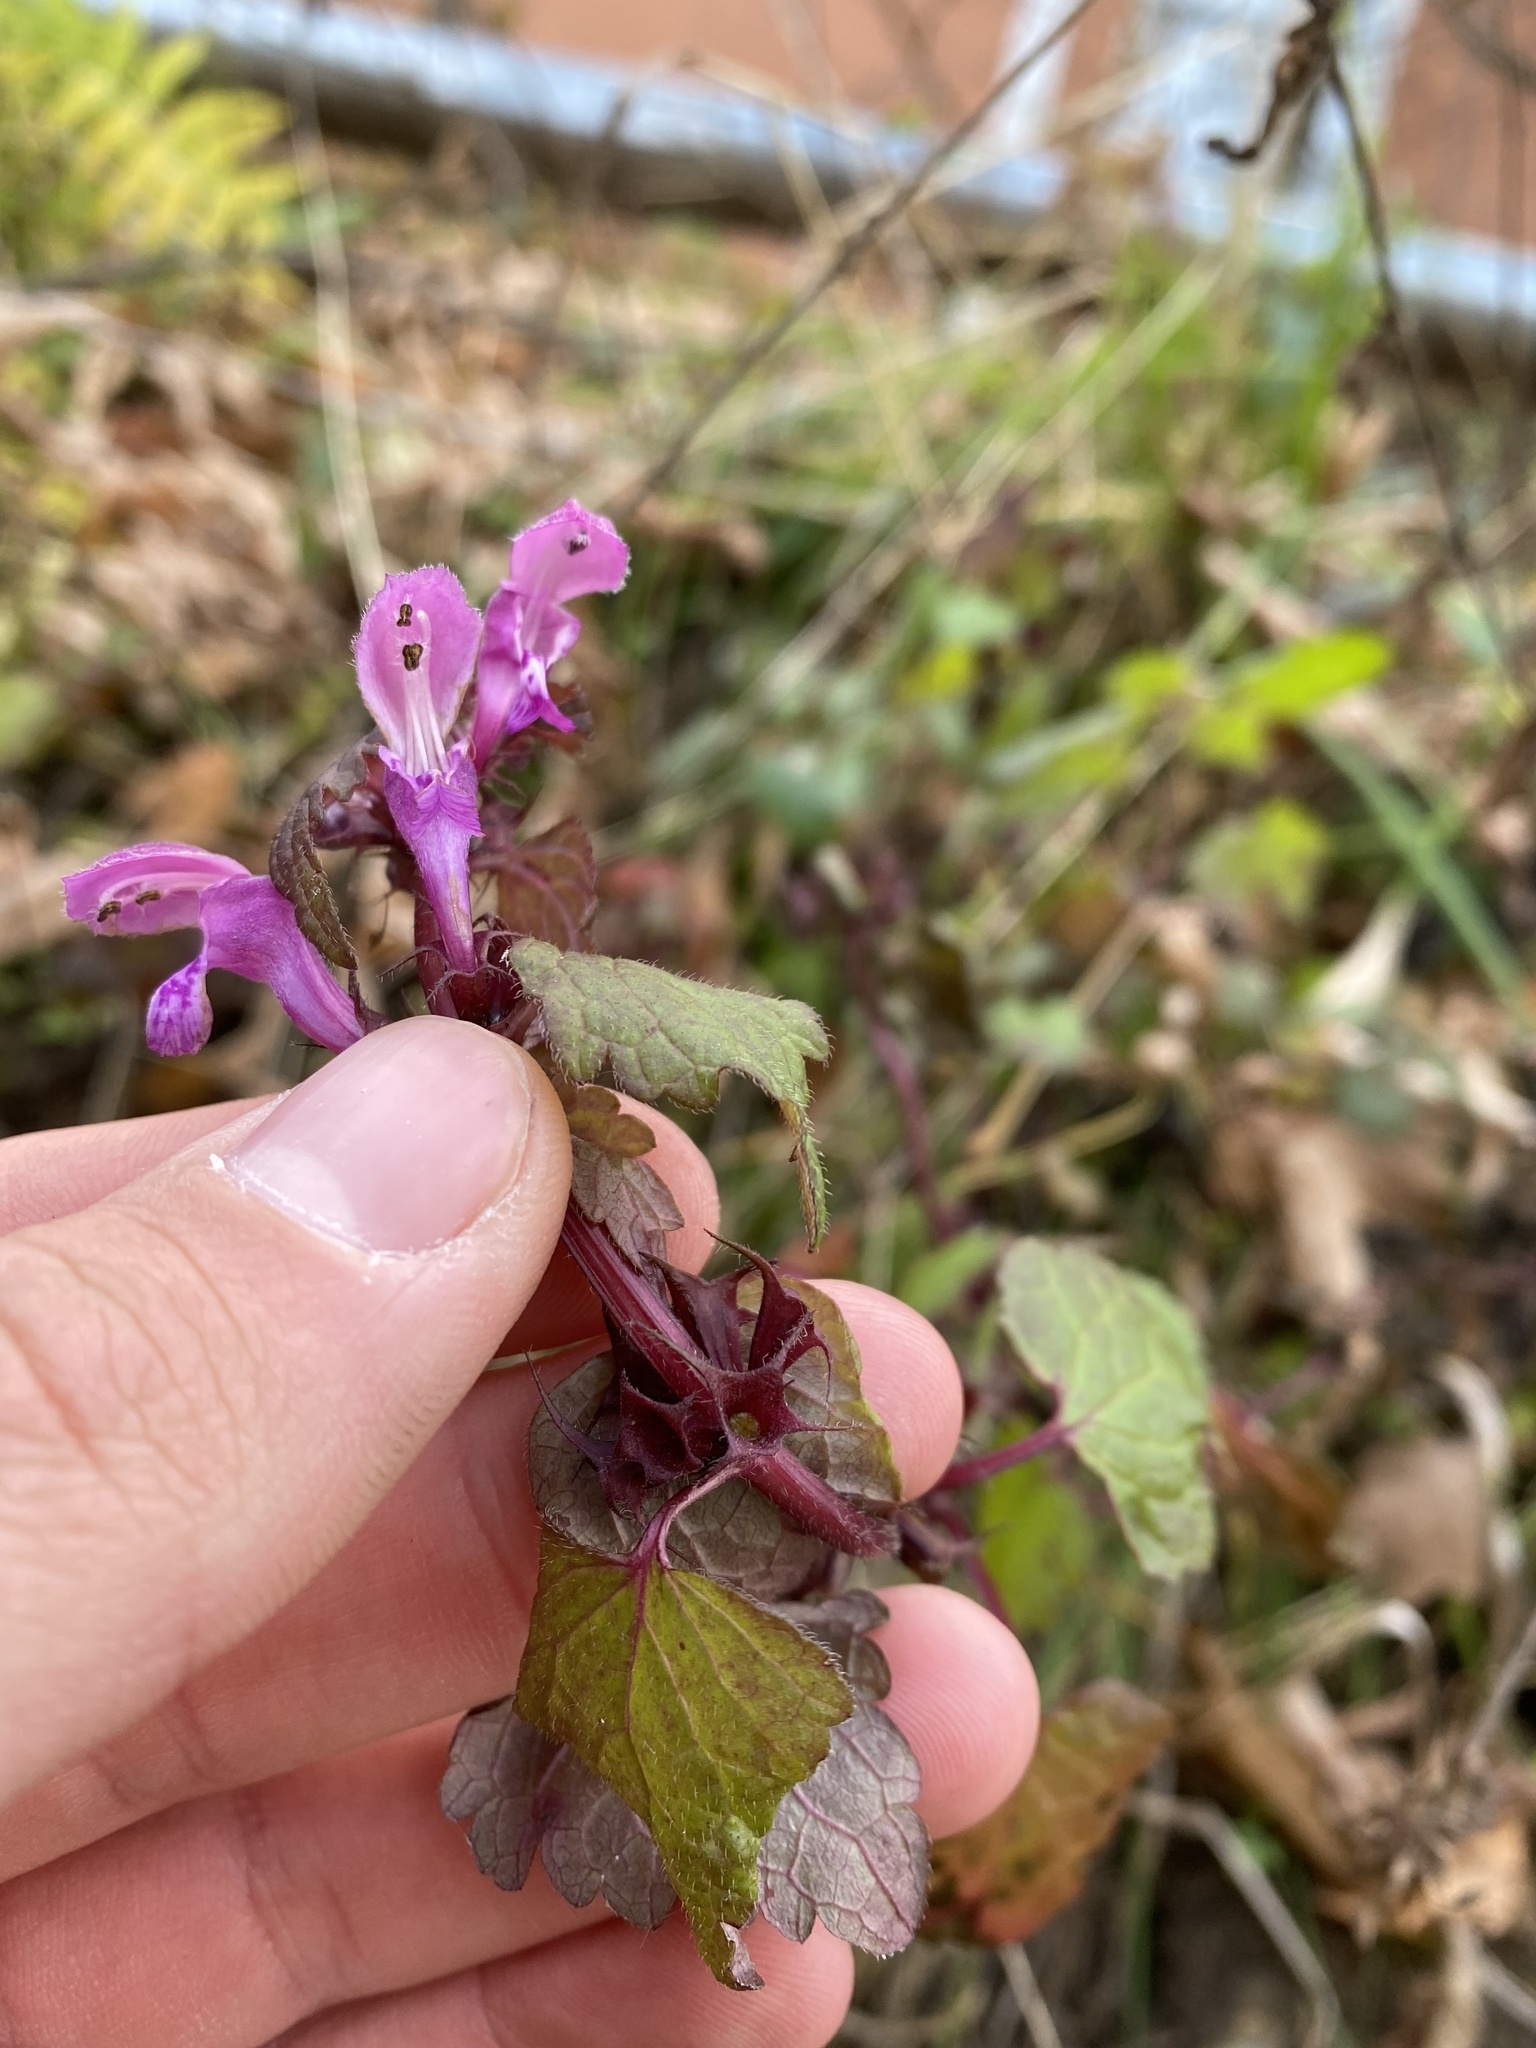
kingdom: Plantae
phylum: Tracheophyta
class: Magnoliopsida
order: Lamiales
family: Lamiaceae
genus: Lamium
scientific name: Lamium maculatum
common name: Spotted dead-nettle
